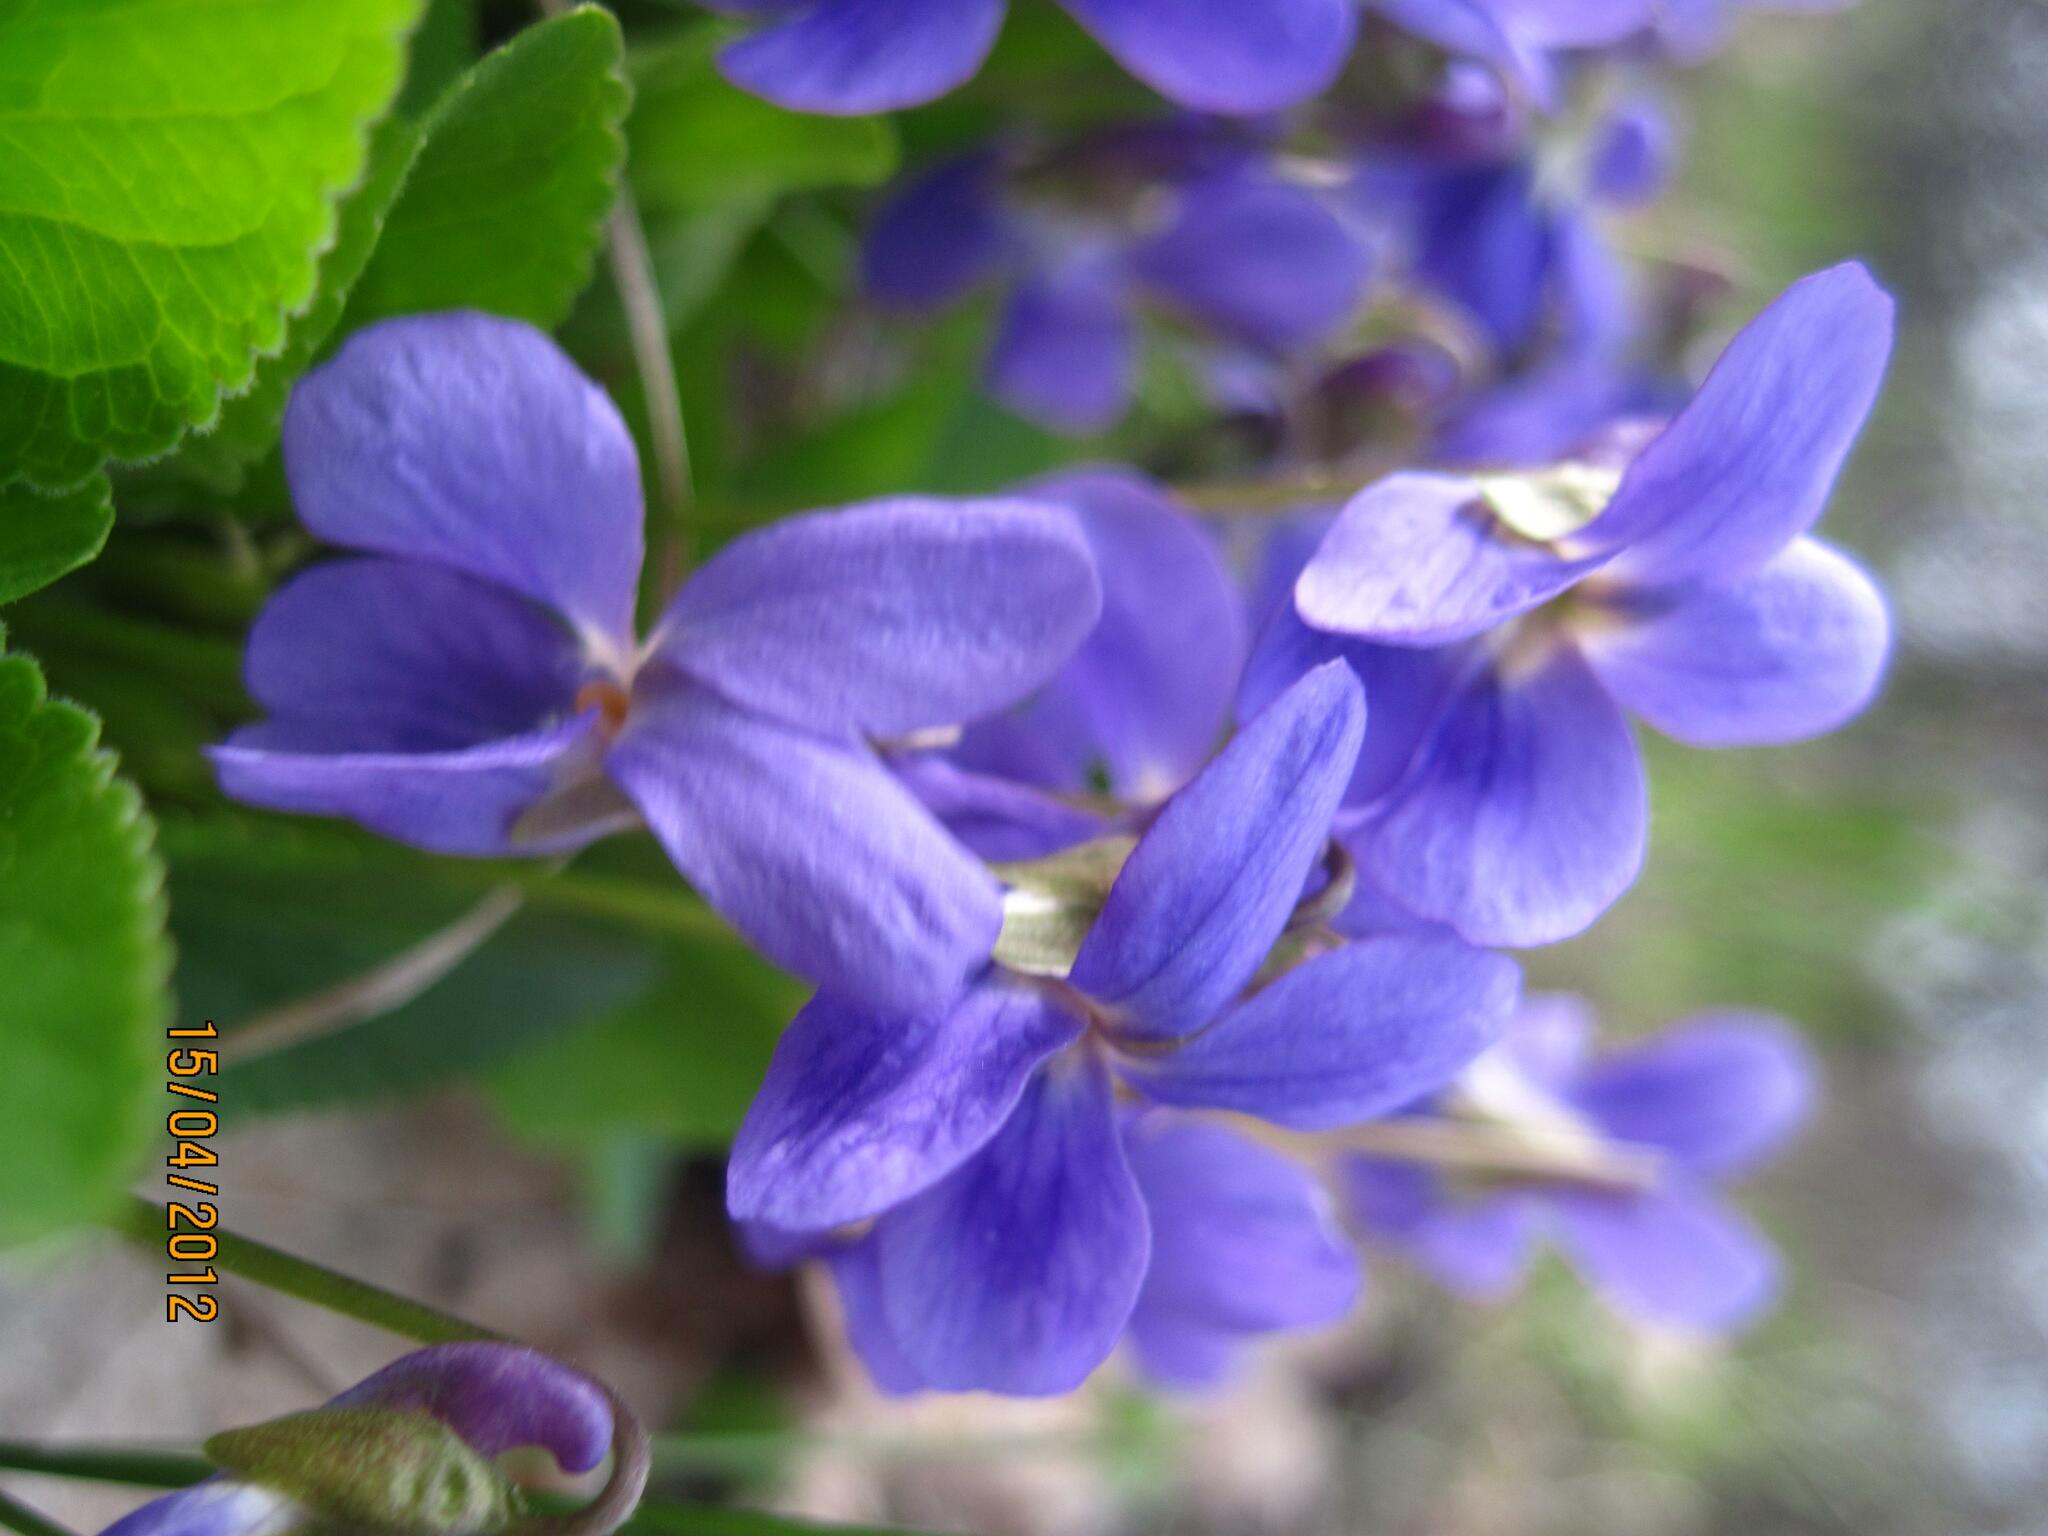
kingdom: Plantae
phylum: Tracheophyta
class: Magnoliopsida
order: Malpighiales
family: Violaceae
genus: Viola
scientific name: Viola suavis
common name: Russian violet
